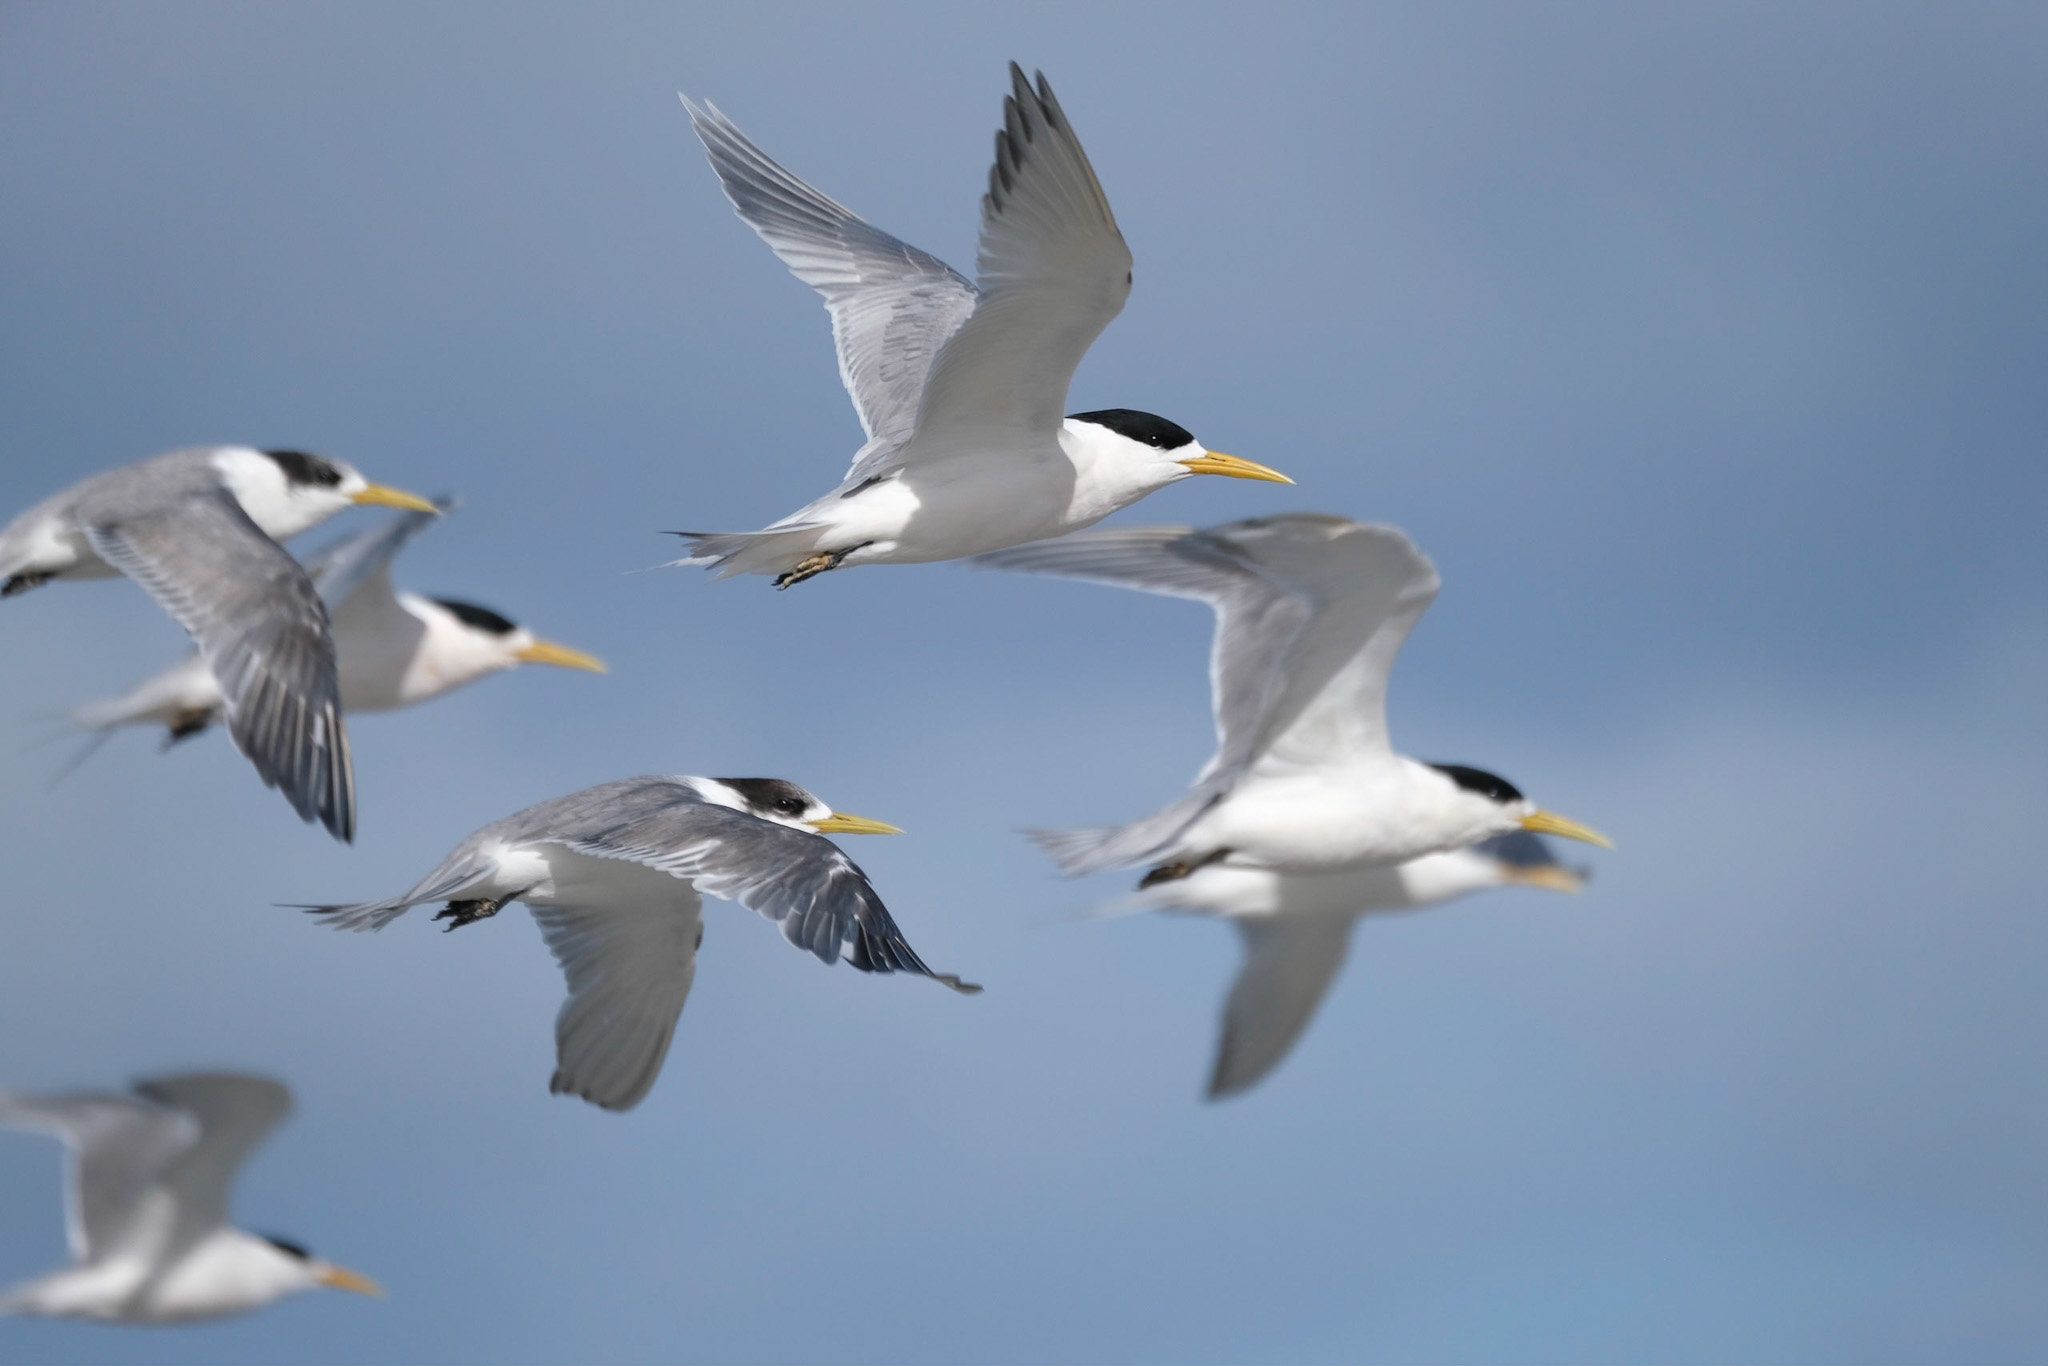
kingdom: Animalia
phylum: Chordata
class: Aves
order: Charadriiformes
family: Laridae
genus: Thalasseus
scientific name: Thalasseus bergii
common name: Greater crested tern
